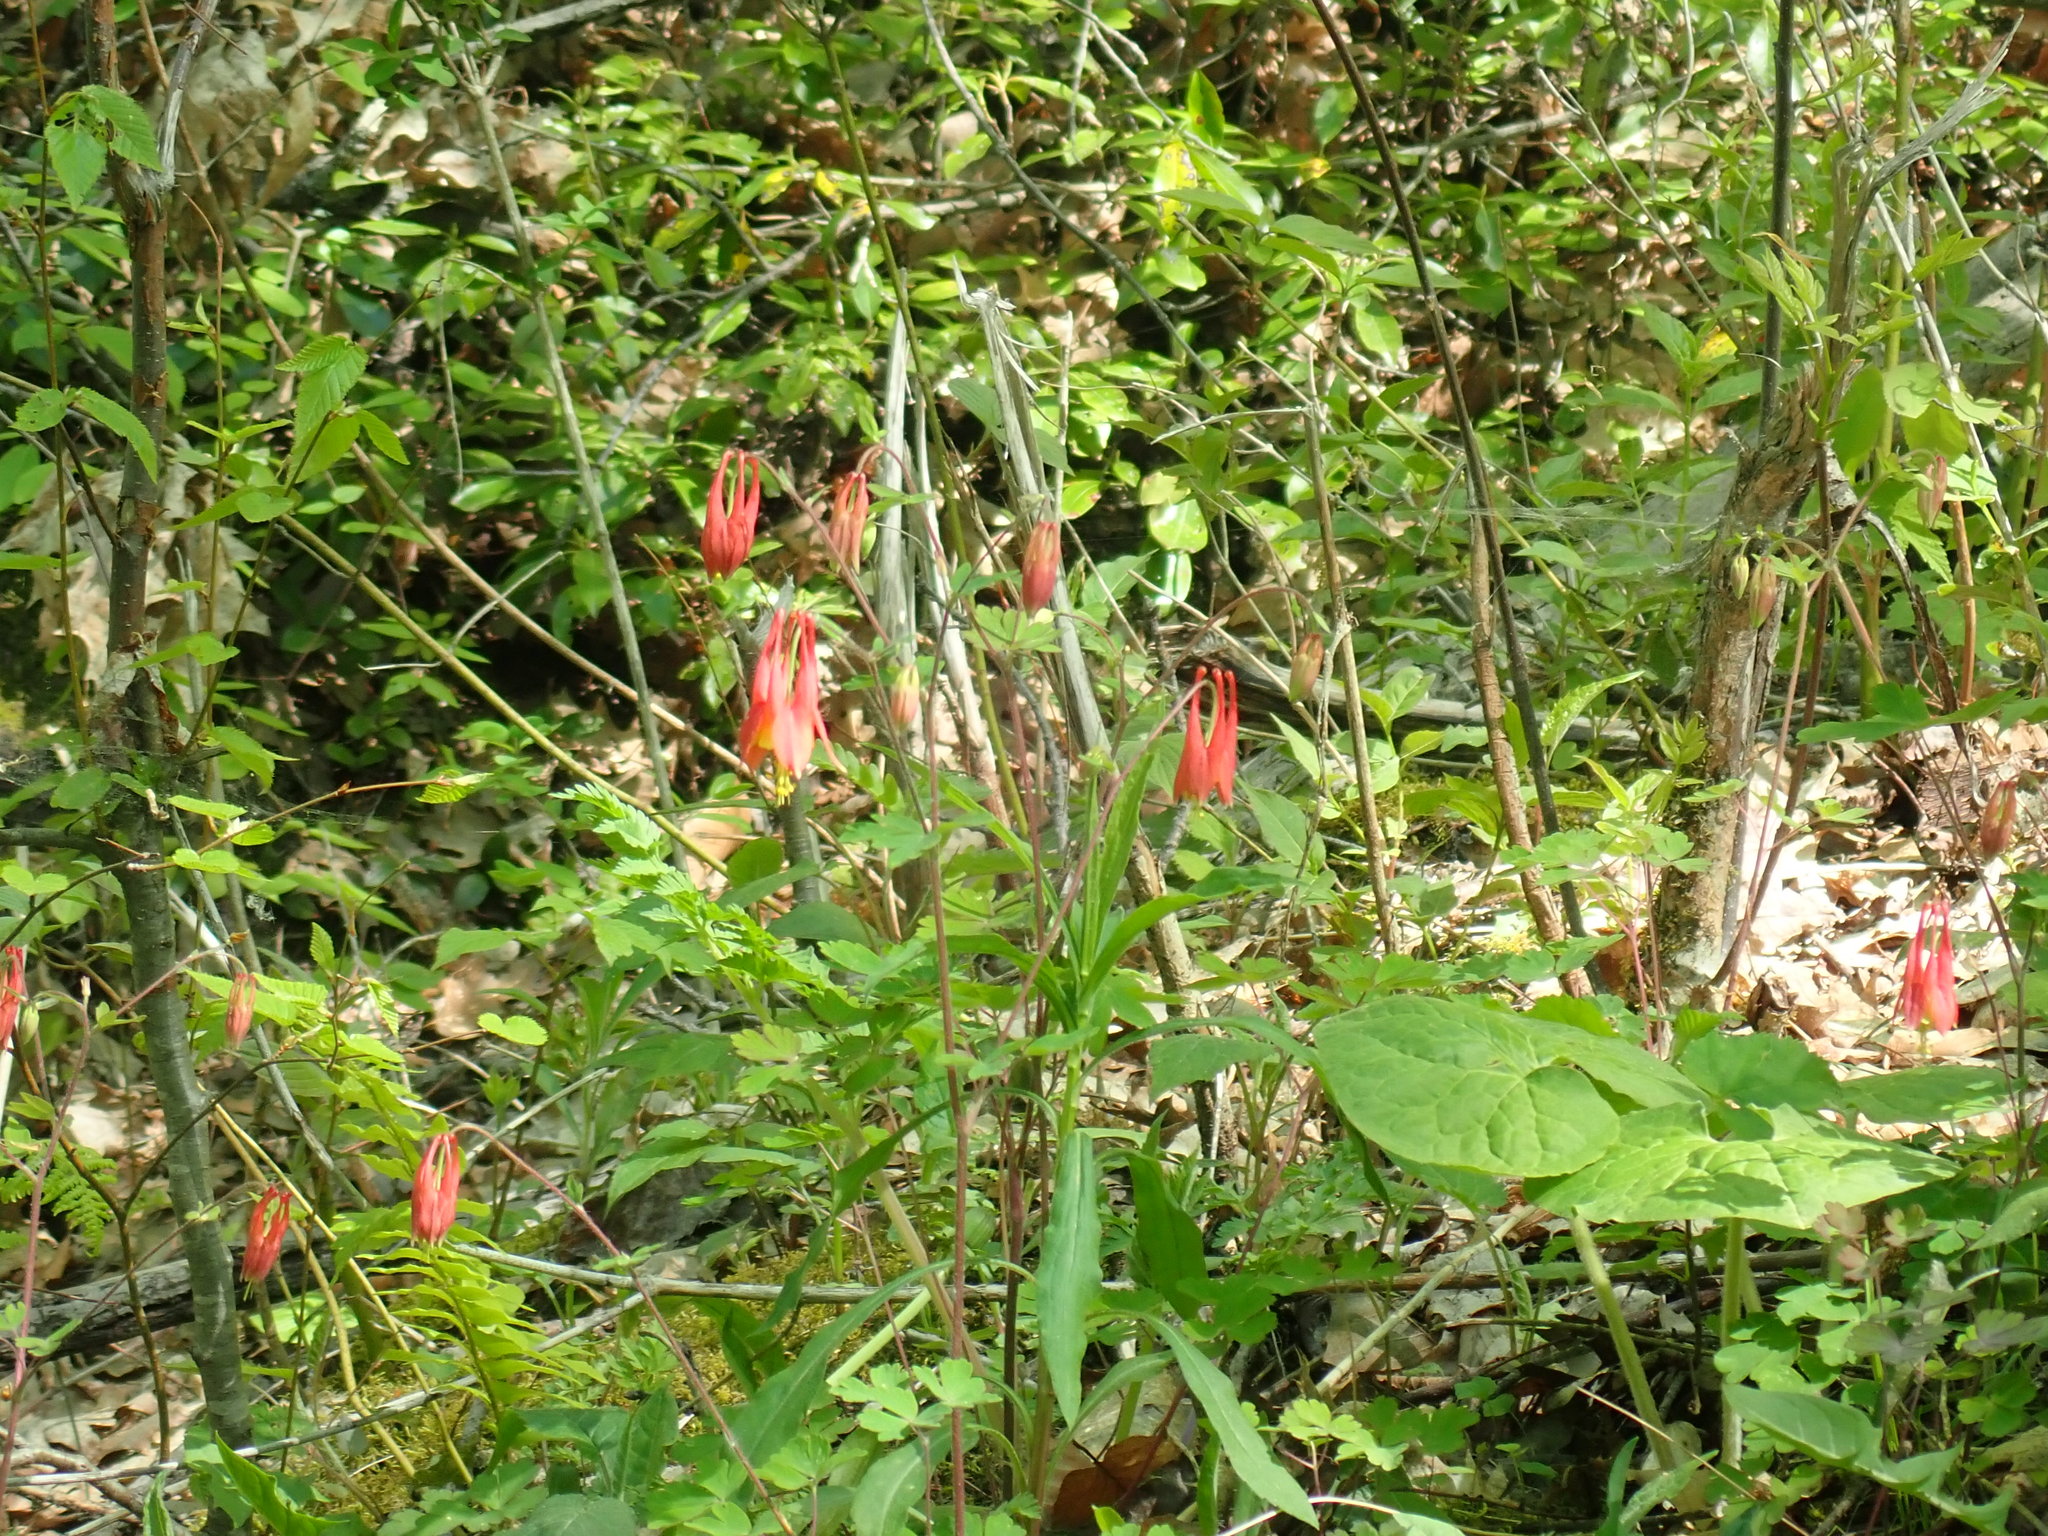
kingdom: Plantae
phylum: Tracheophyta
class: Magnoliopsida
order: Ranunculales
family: Ranunculaceae
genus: Aquilegia
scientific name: Aquilegia canadensis
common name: American columbine
